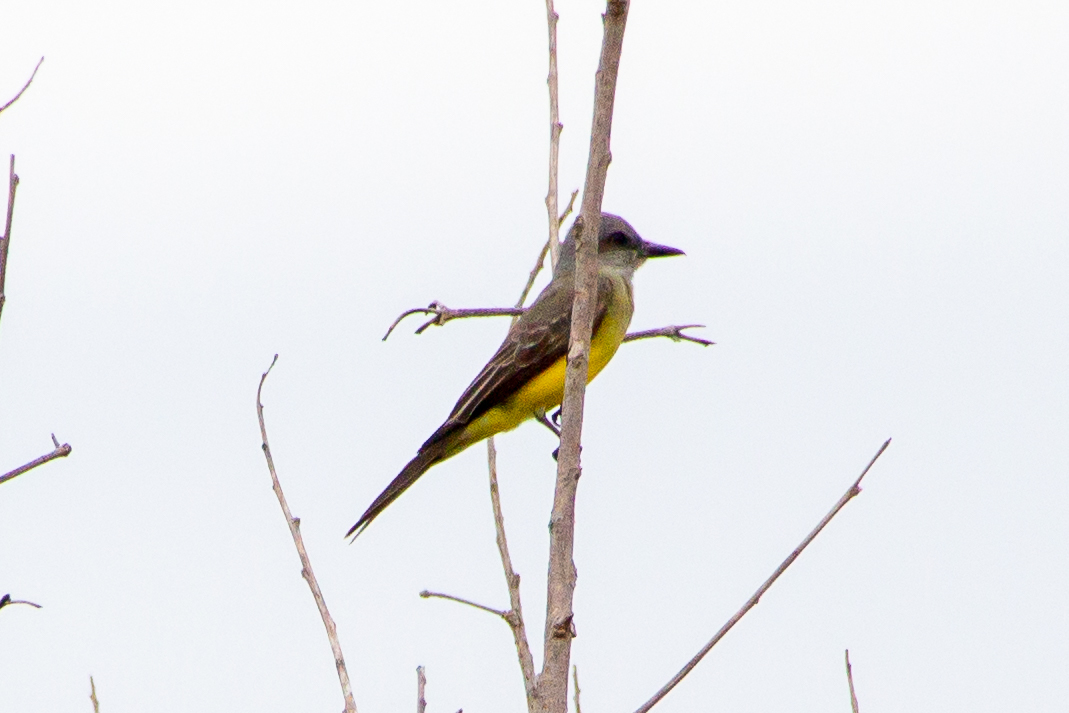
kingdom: Animalia
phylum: Chordata
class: Aves
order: Passeriformes
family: Tyrannidae
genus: Tyrannus
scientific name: Tyrannus melancholicus
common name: Tropical kingbird
